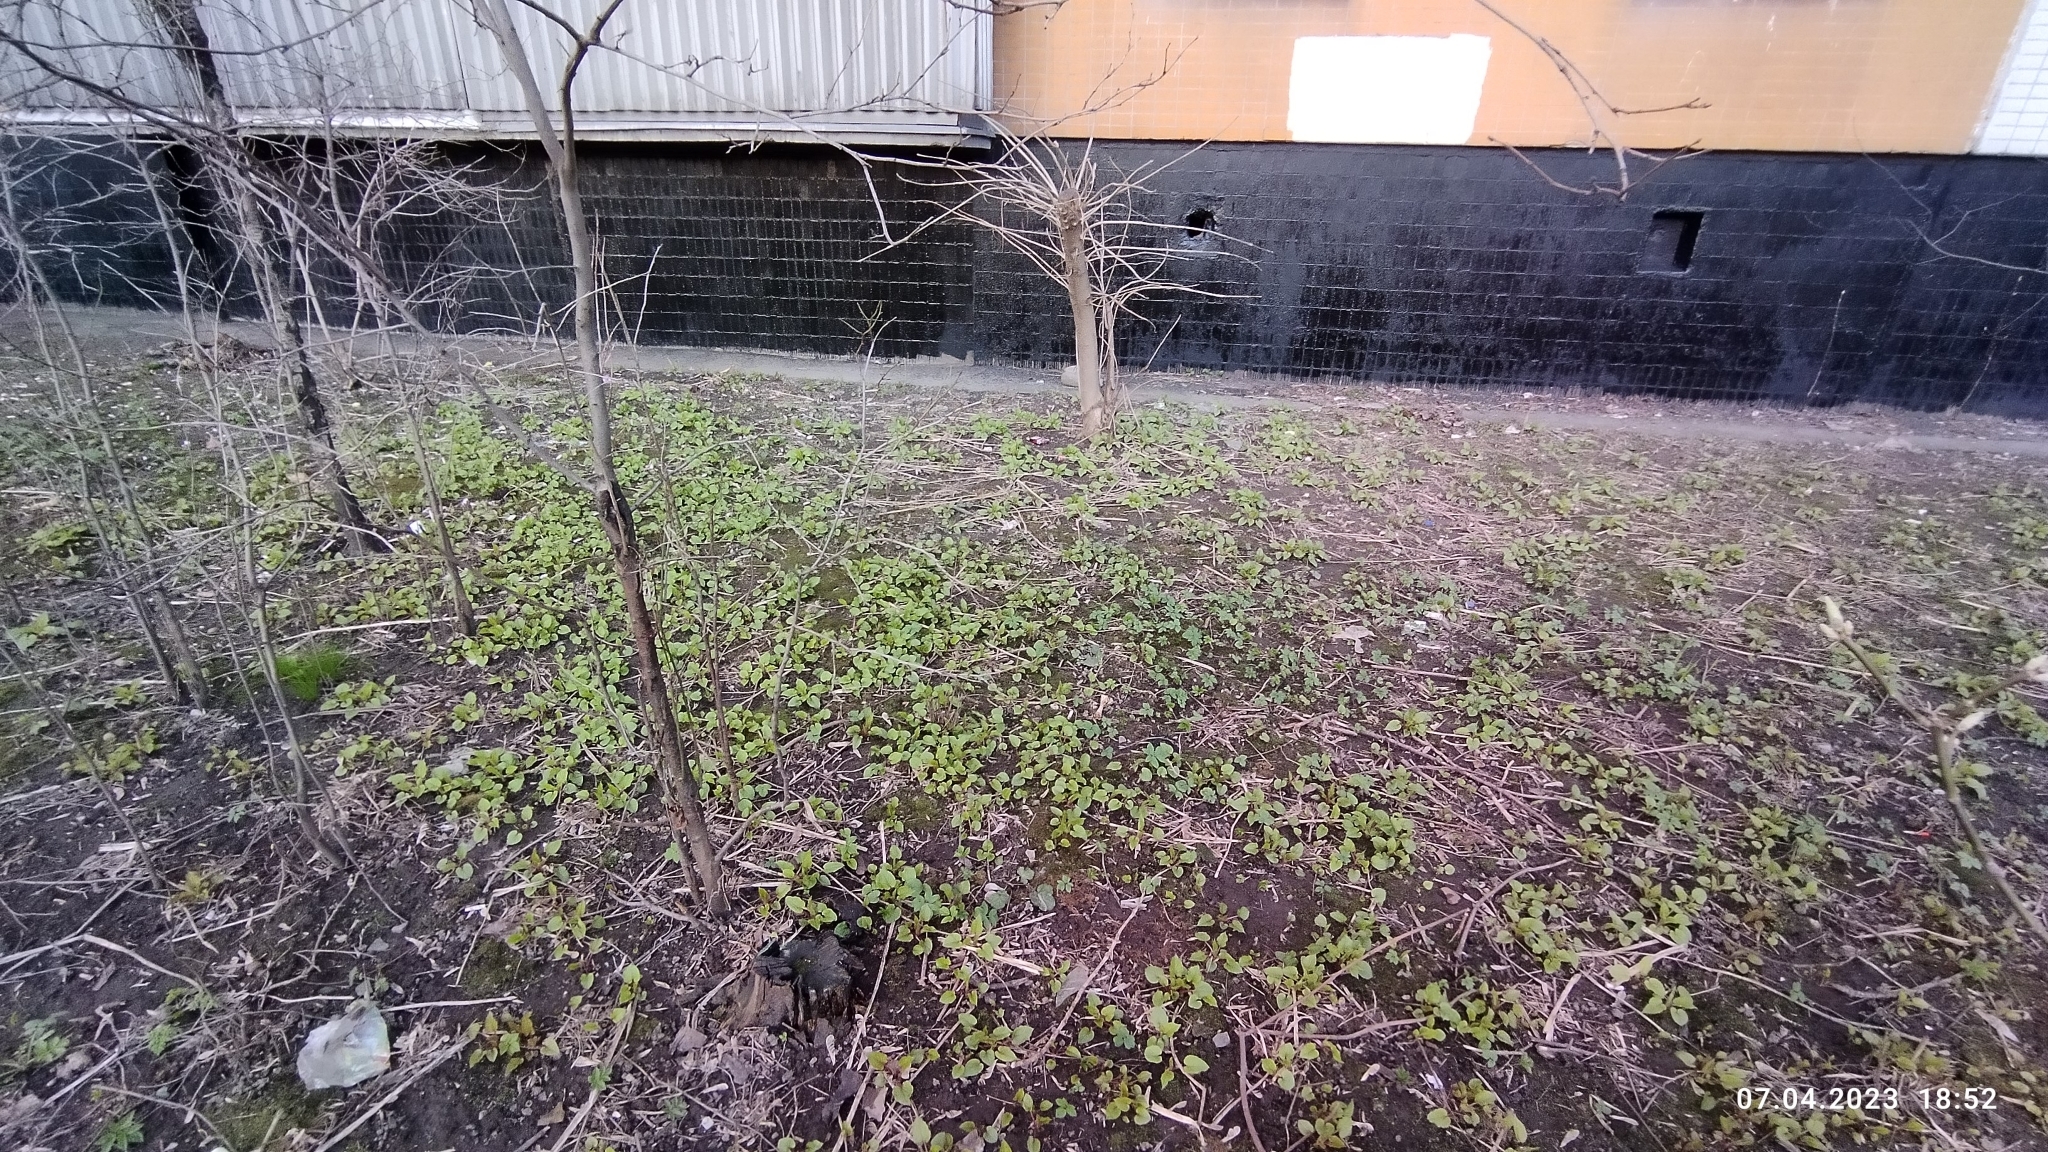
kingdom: Plantae
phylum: Tracheophyta
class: Magnoliopsida
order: Asterales
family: Campanulaceae
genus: Campanula
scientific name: Campanula latifolia
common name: Giant bellflower
